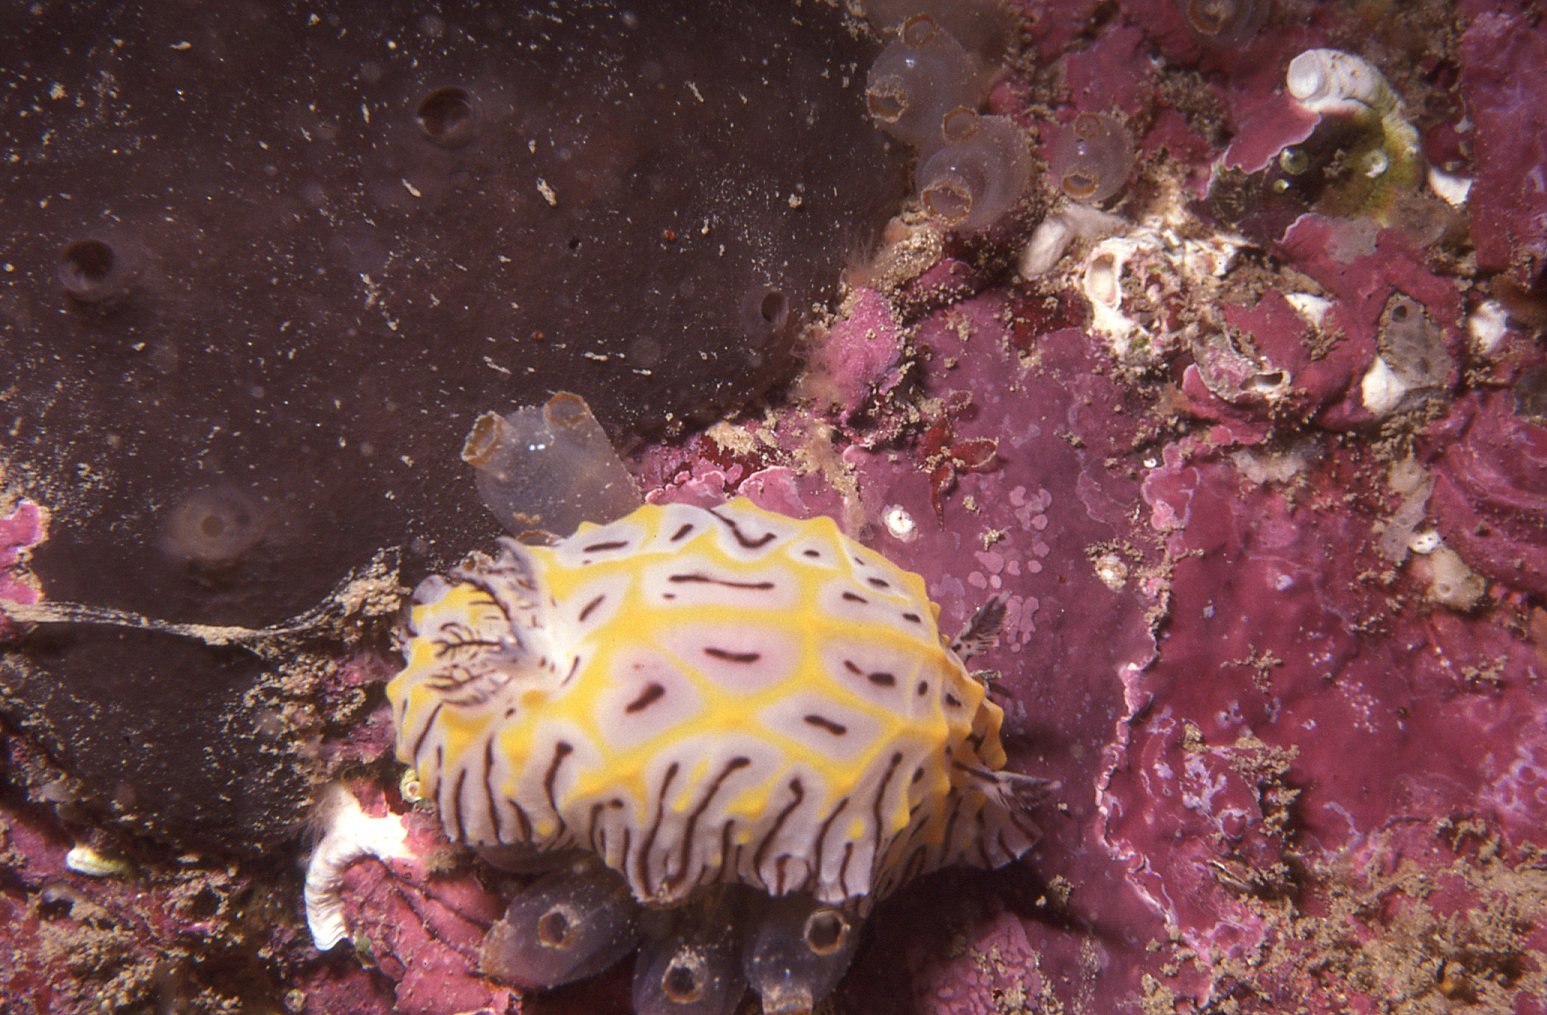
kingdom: Animalia
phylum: Mollusca
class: Gastropoda
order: Nudibranchia
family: Discodorididae
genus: Halgerda
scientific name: Halgerda willeyi
